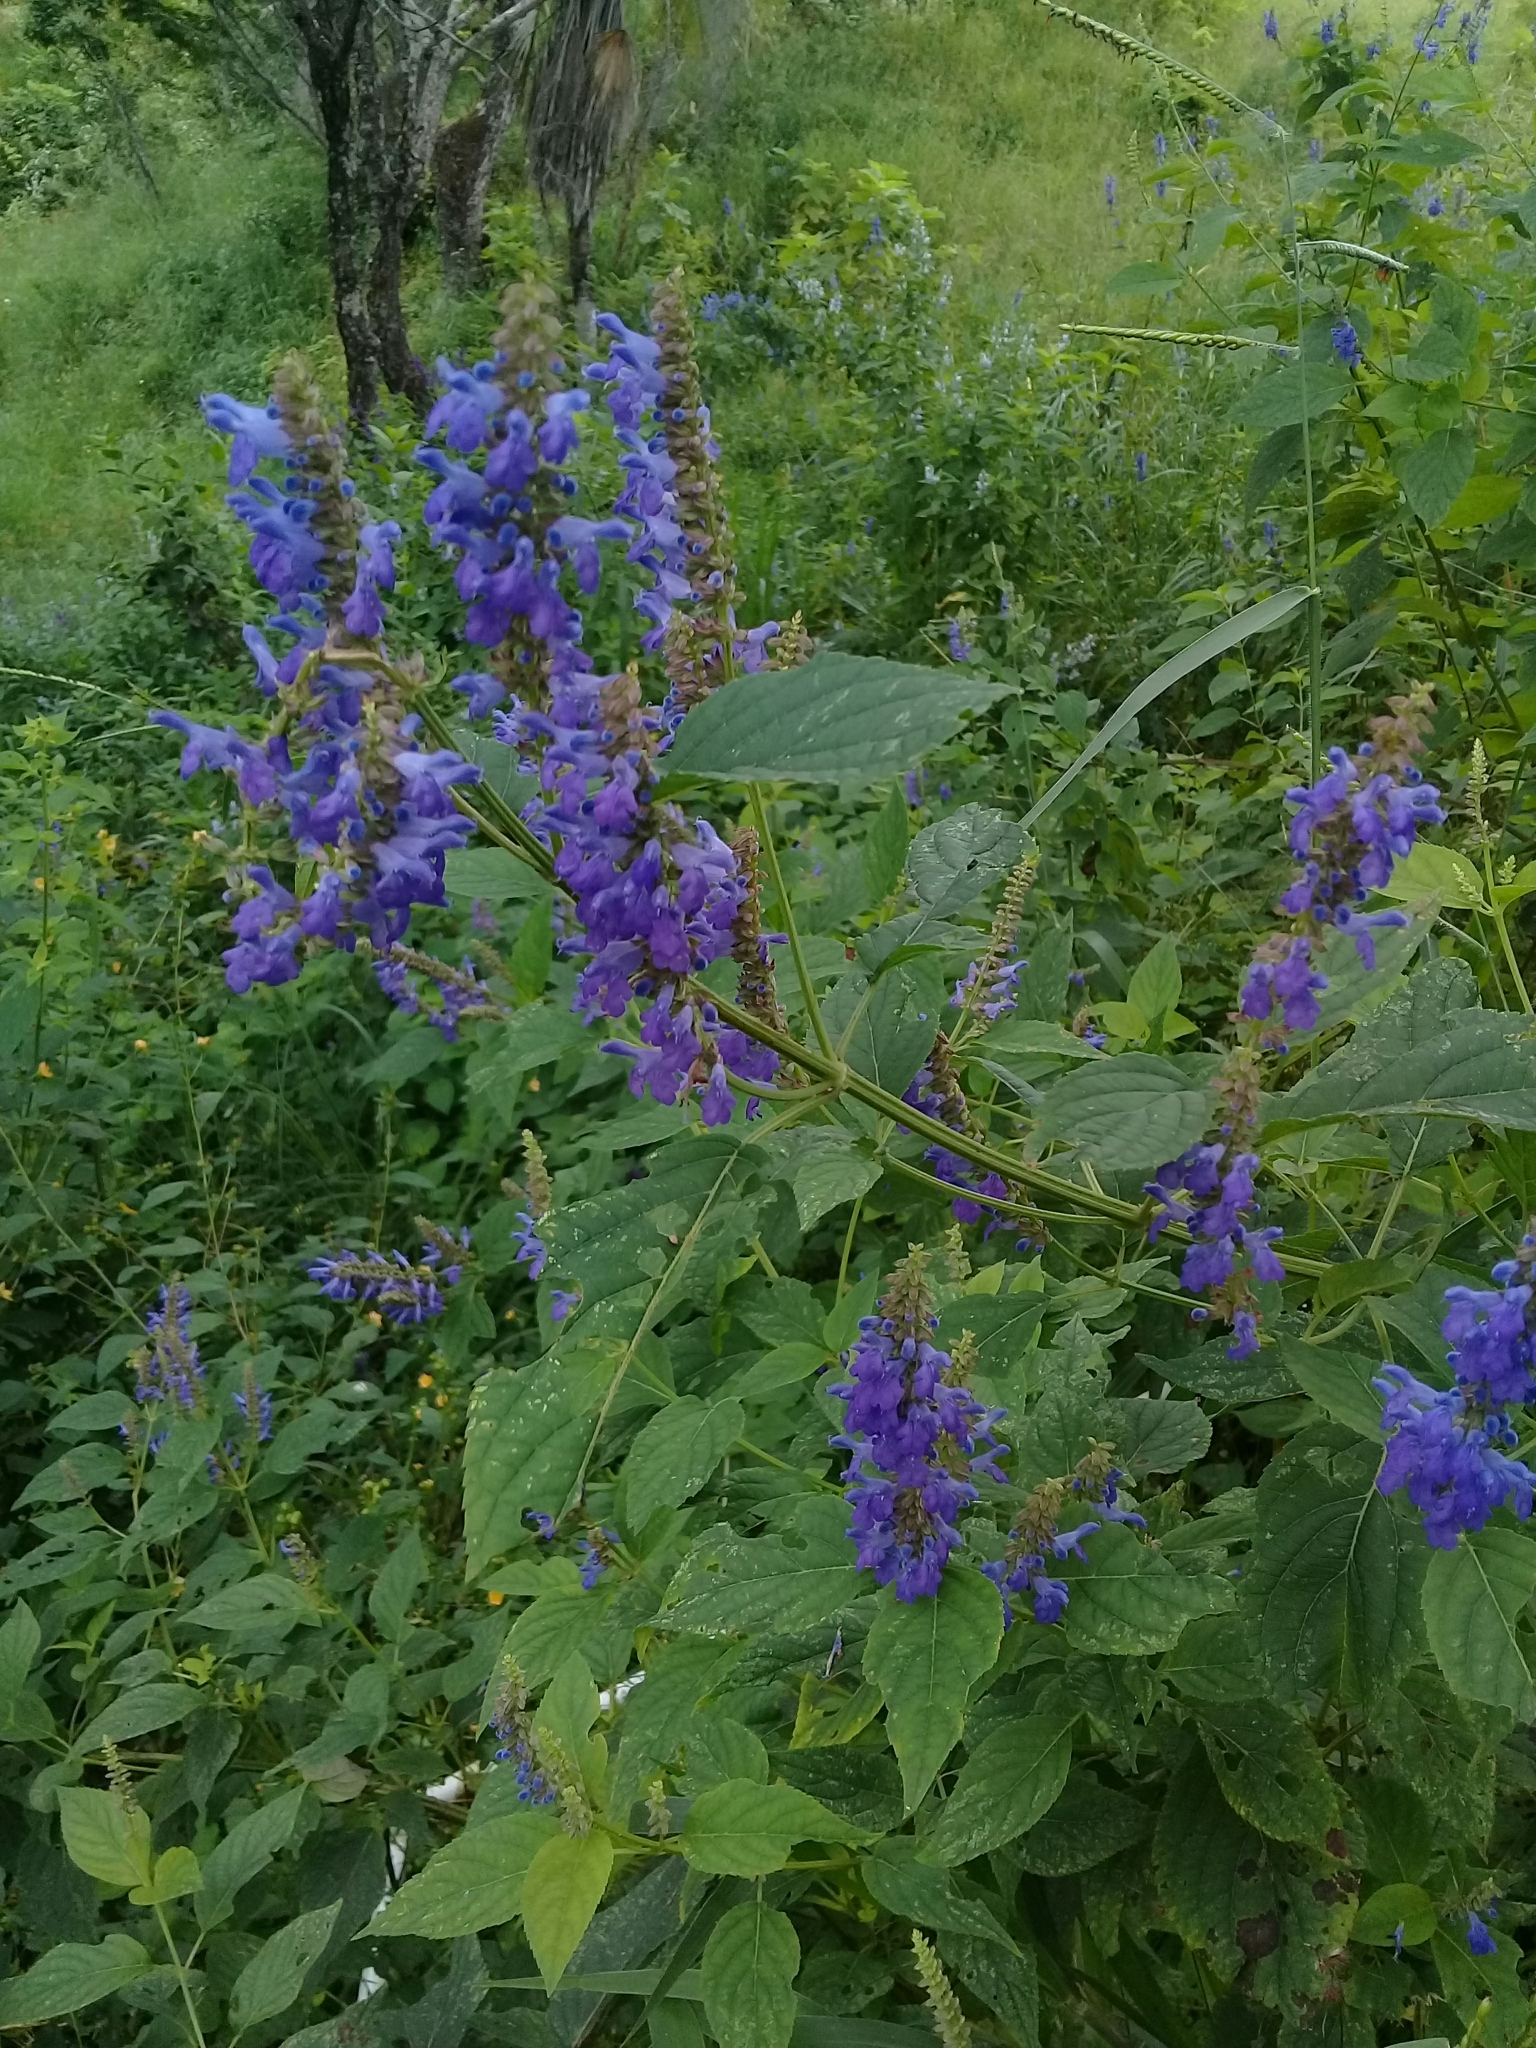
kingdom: Plantae
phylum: Tracheophyta
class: Magnoliopsida
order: Lamiales
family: Lamiaceae
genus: Salvia
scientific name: Salvia polystachia
